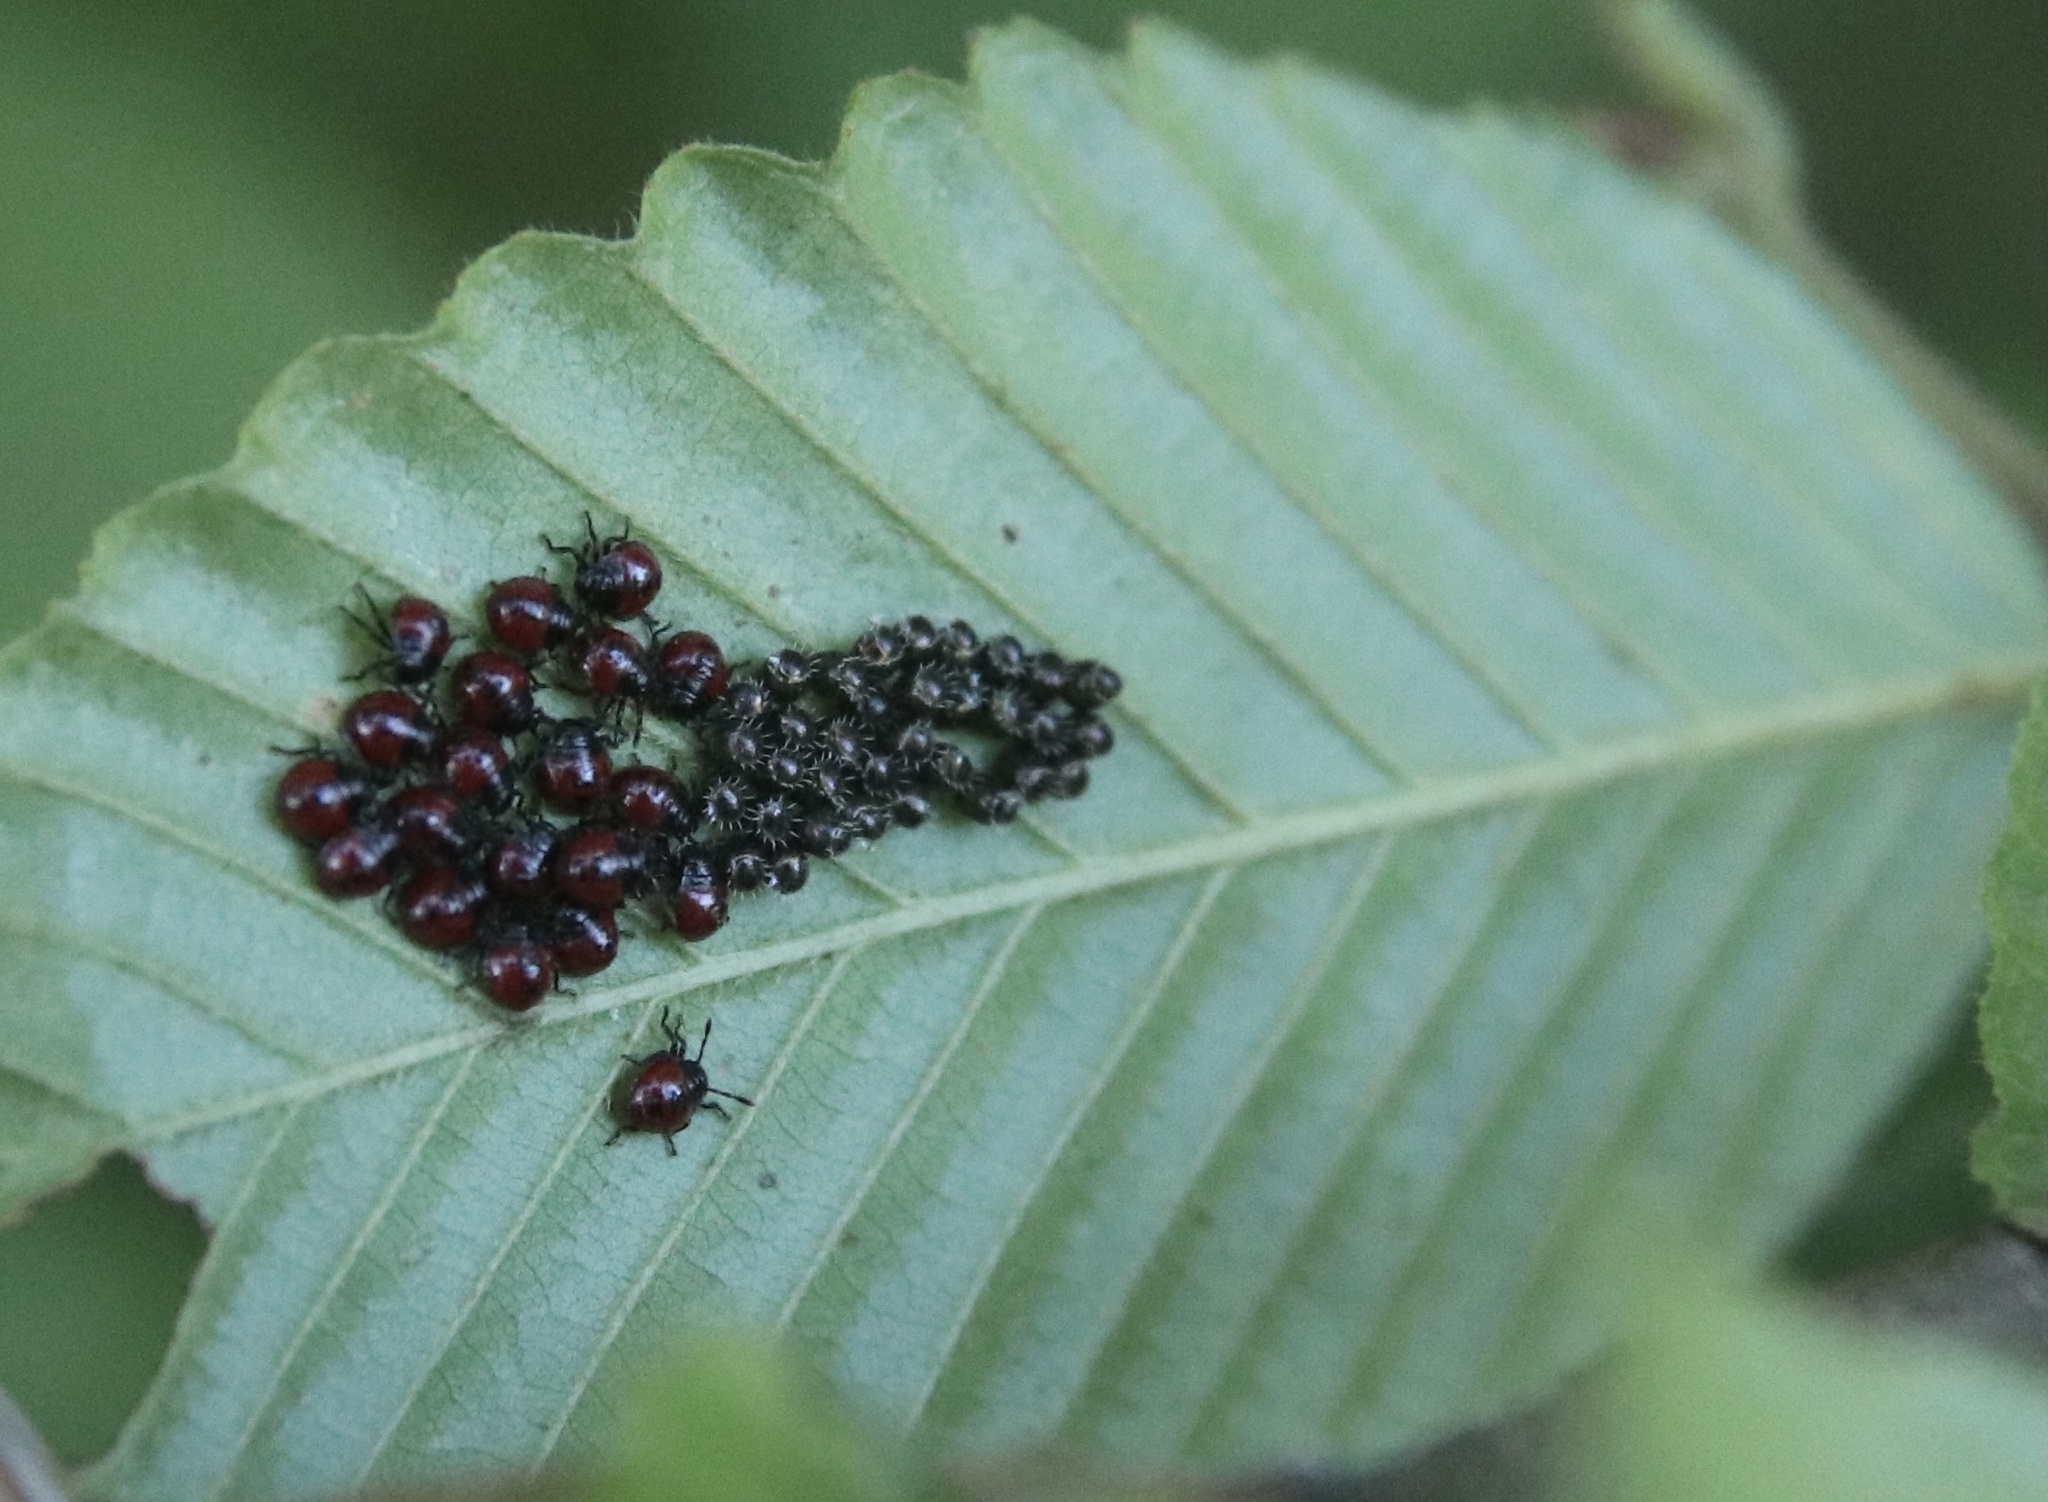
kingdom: Animalia
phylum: Arthropoda
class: Insecta
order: Hemiptera
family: Pentatomidae
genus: Brontocoris
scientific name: Brontocoris
